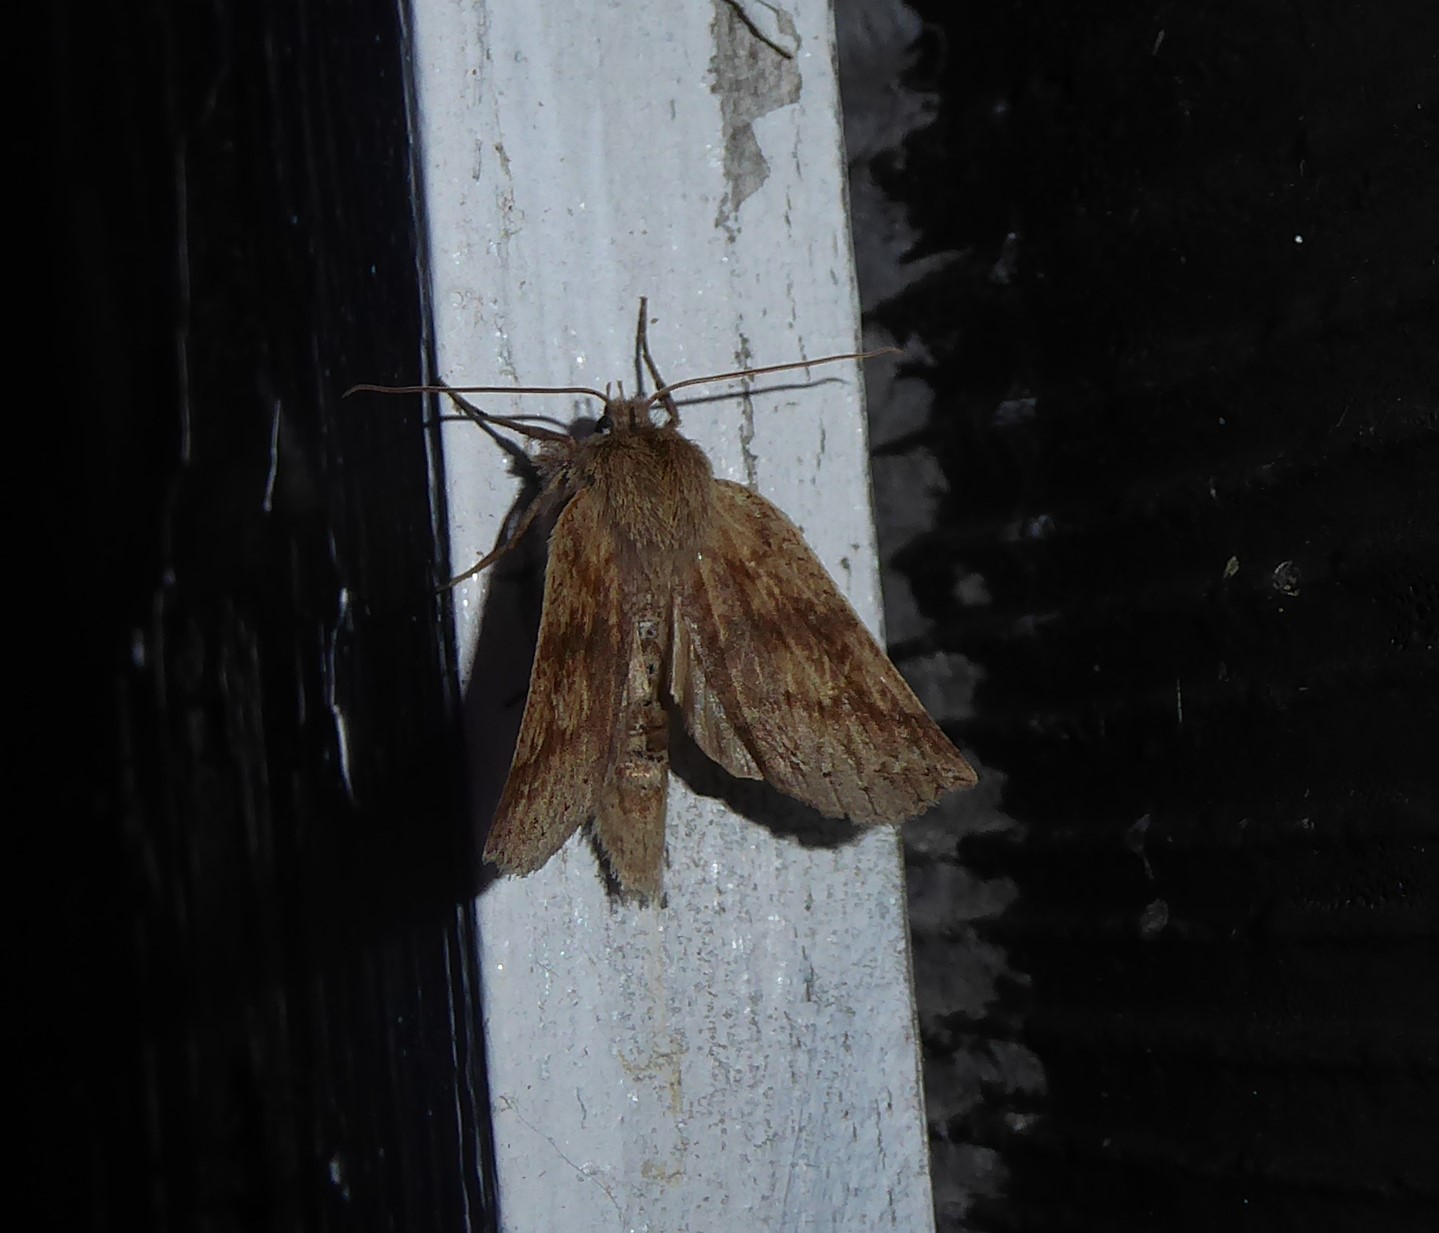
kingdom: Animalia
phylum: Arthropoda
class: Insecta
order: Lepidoptera
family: Geometridae
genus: Declana
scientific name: Declana leptomera
